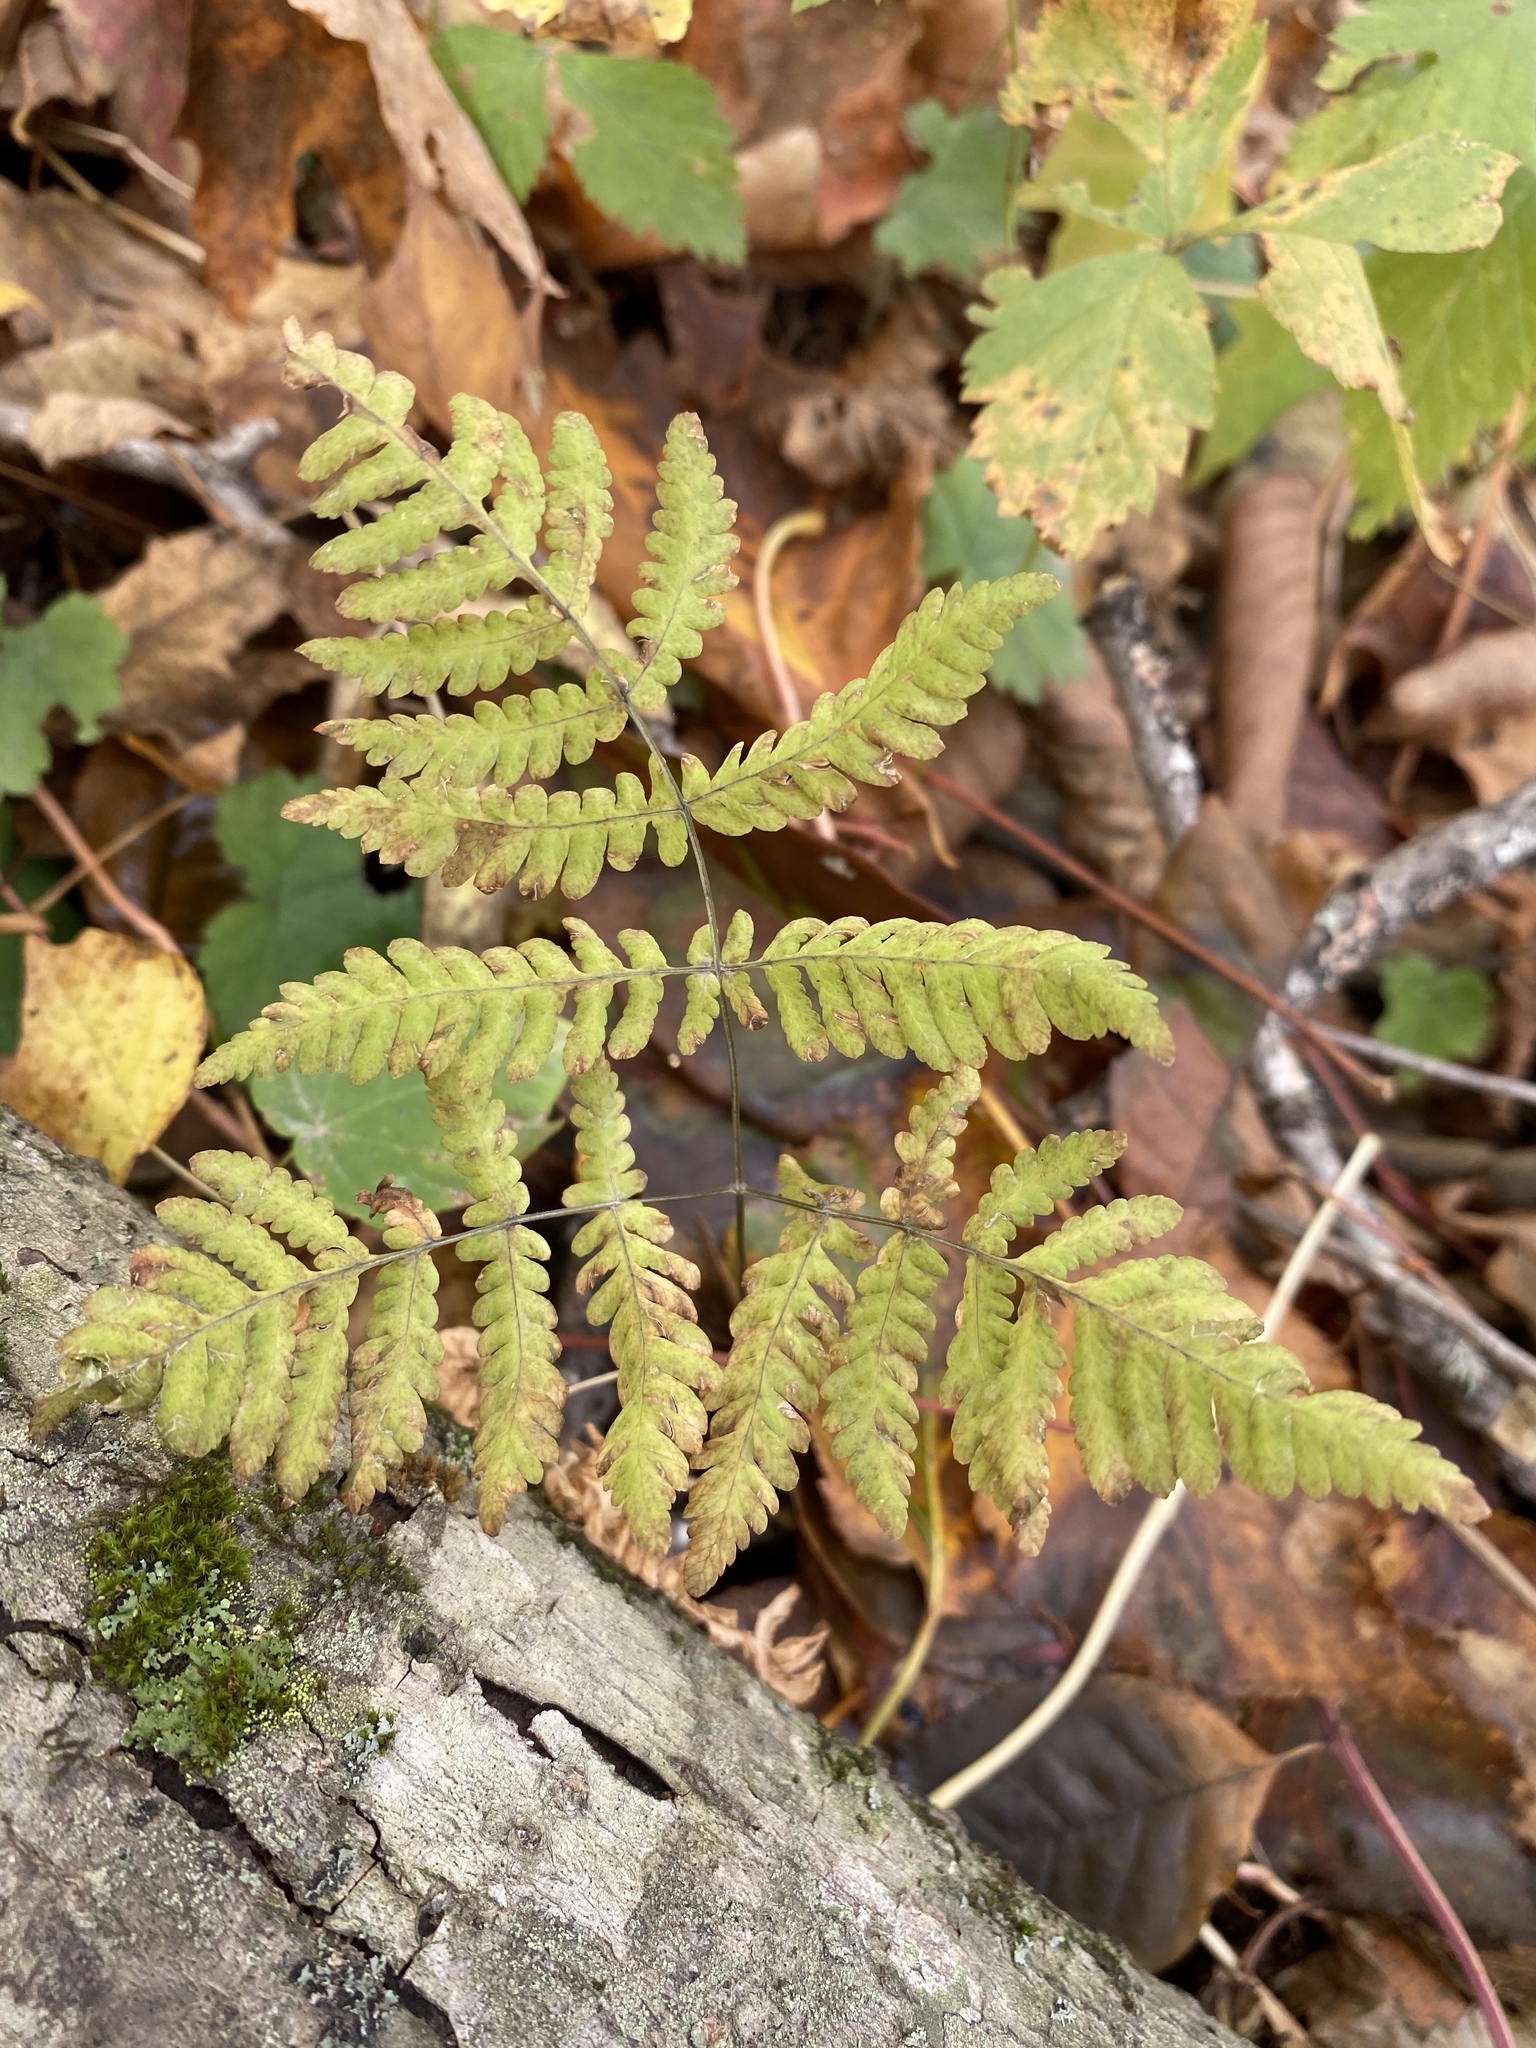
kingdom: Plantae
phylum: Tracheophyta
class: Polypodiopsida
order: Polypodiales
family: Cystopteridaceae
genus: Gymnocarpium
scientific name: Gymnocarpium dryopteris
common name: Oak fern
